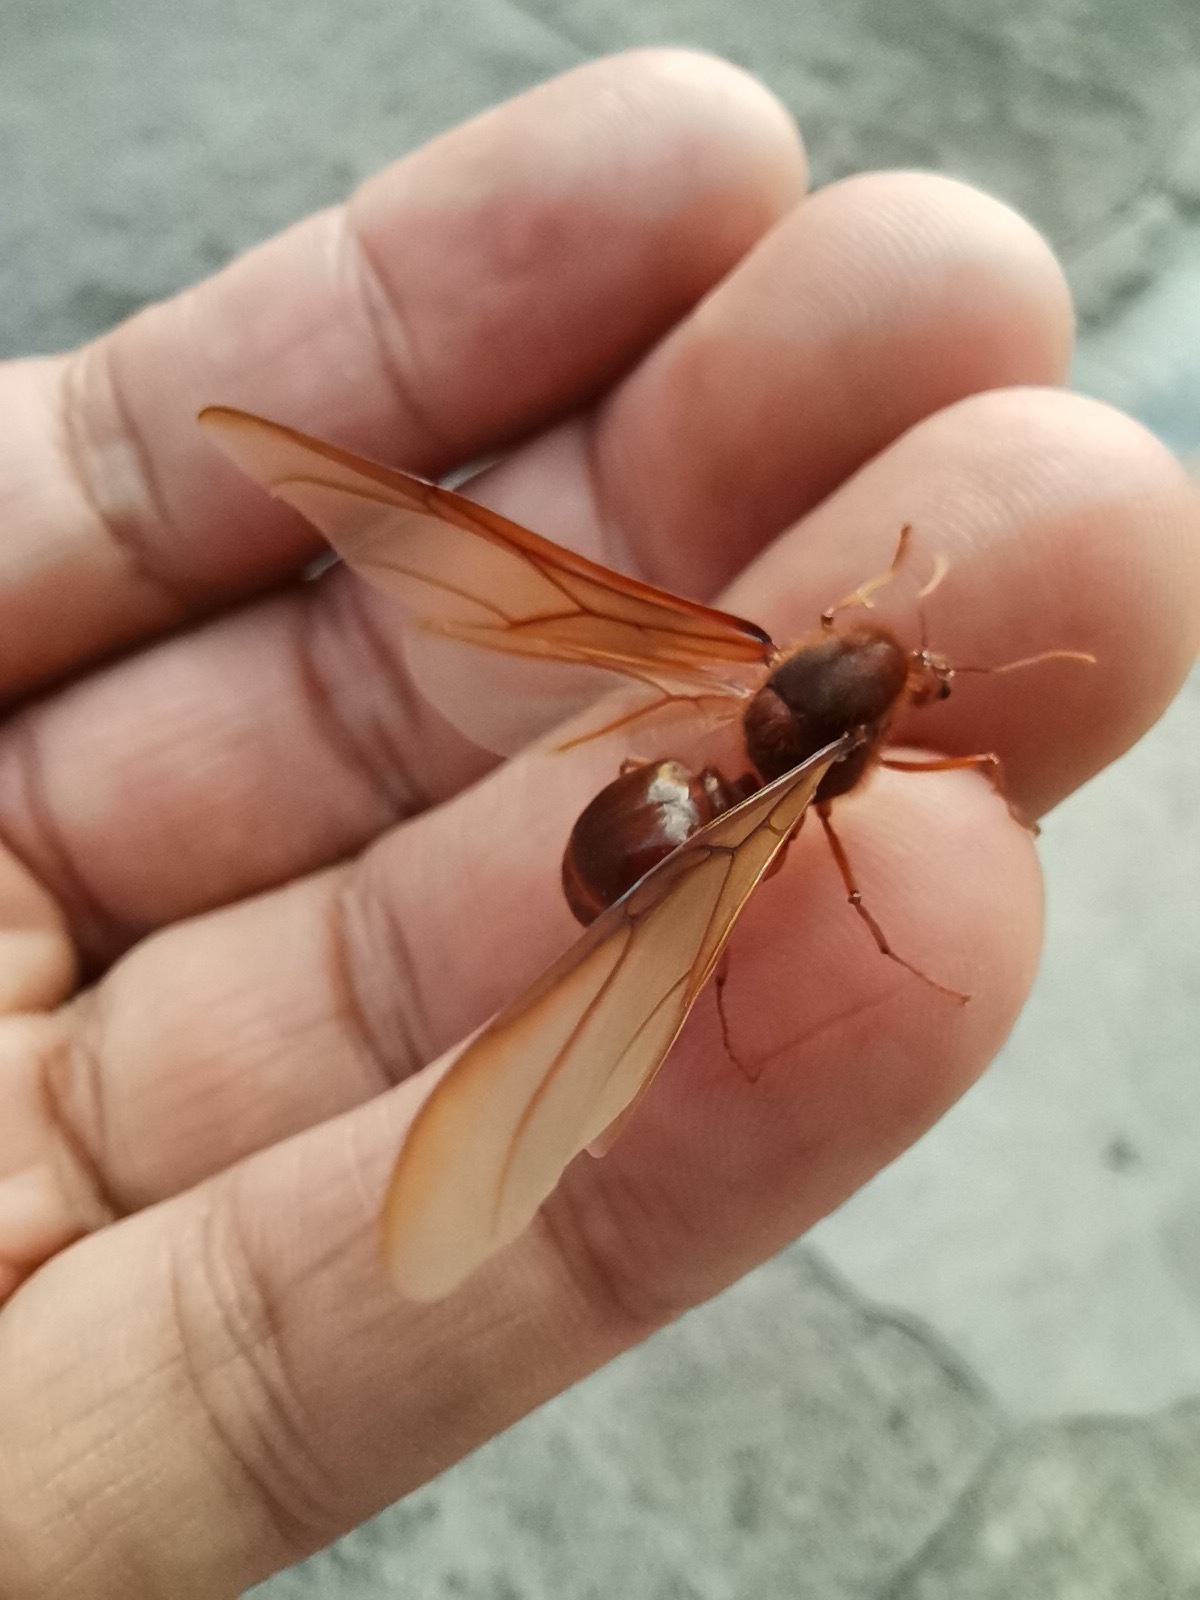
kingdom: Animalia
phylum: Arthropoda
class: Insecta
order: Hymenoptera
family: Formicidae
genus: Atta
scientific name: Atta mexicana
